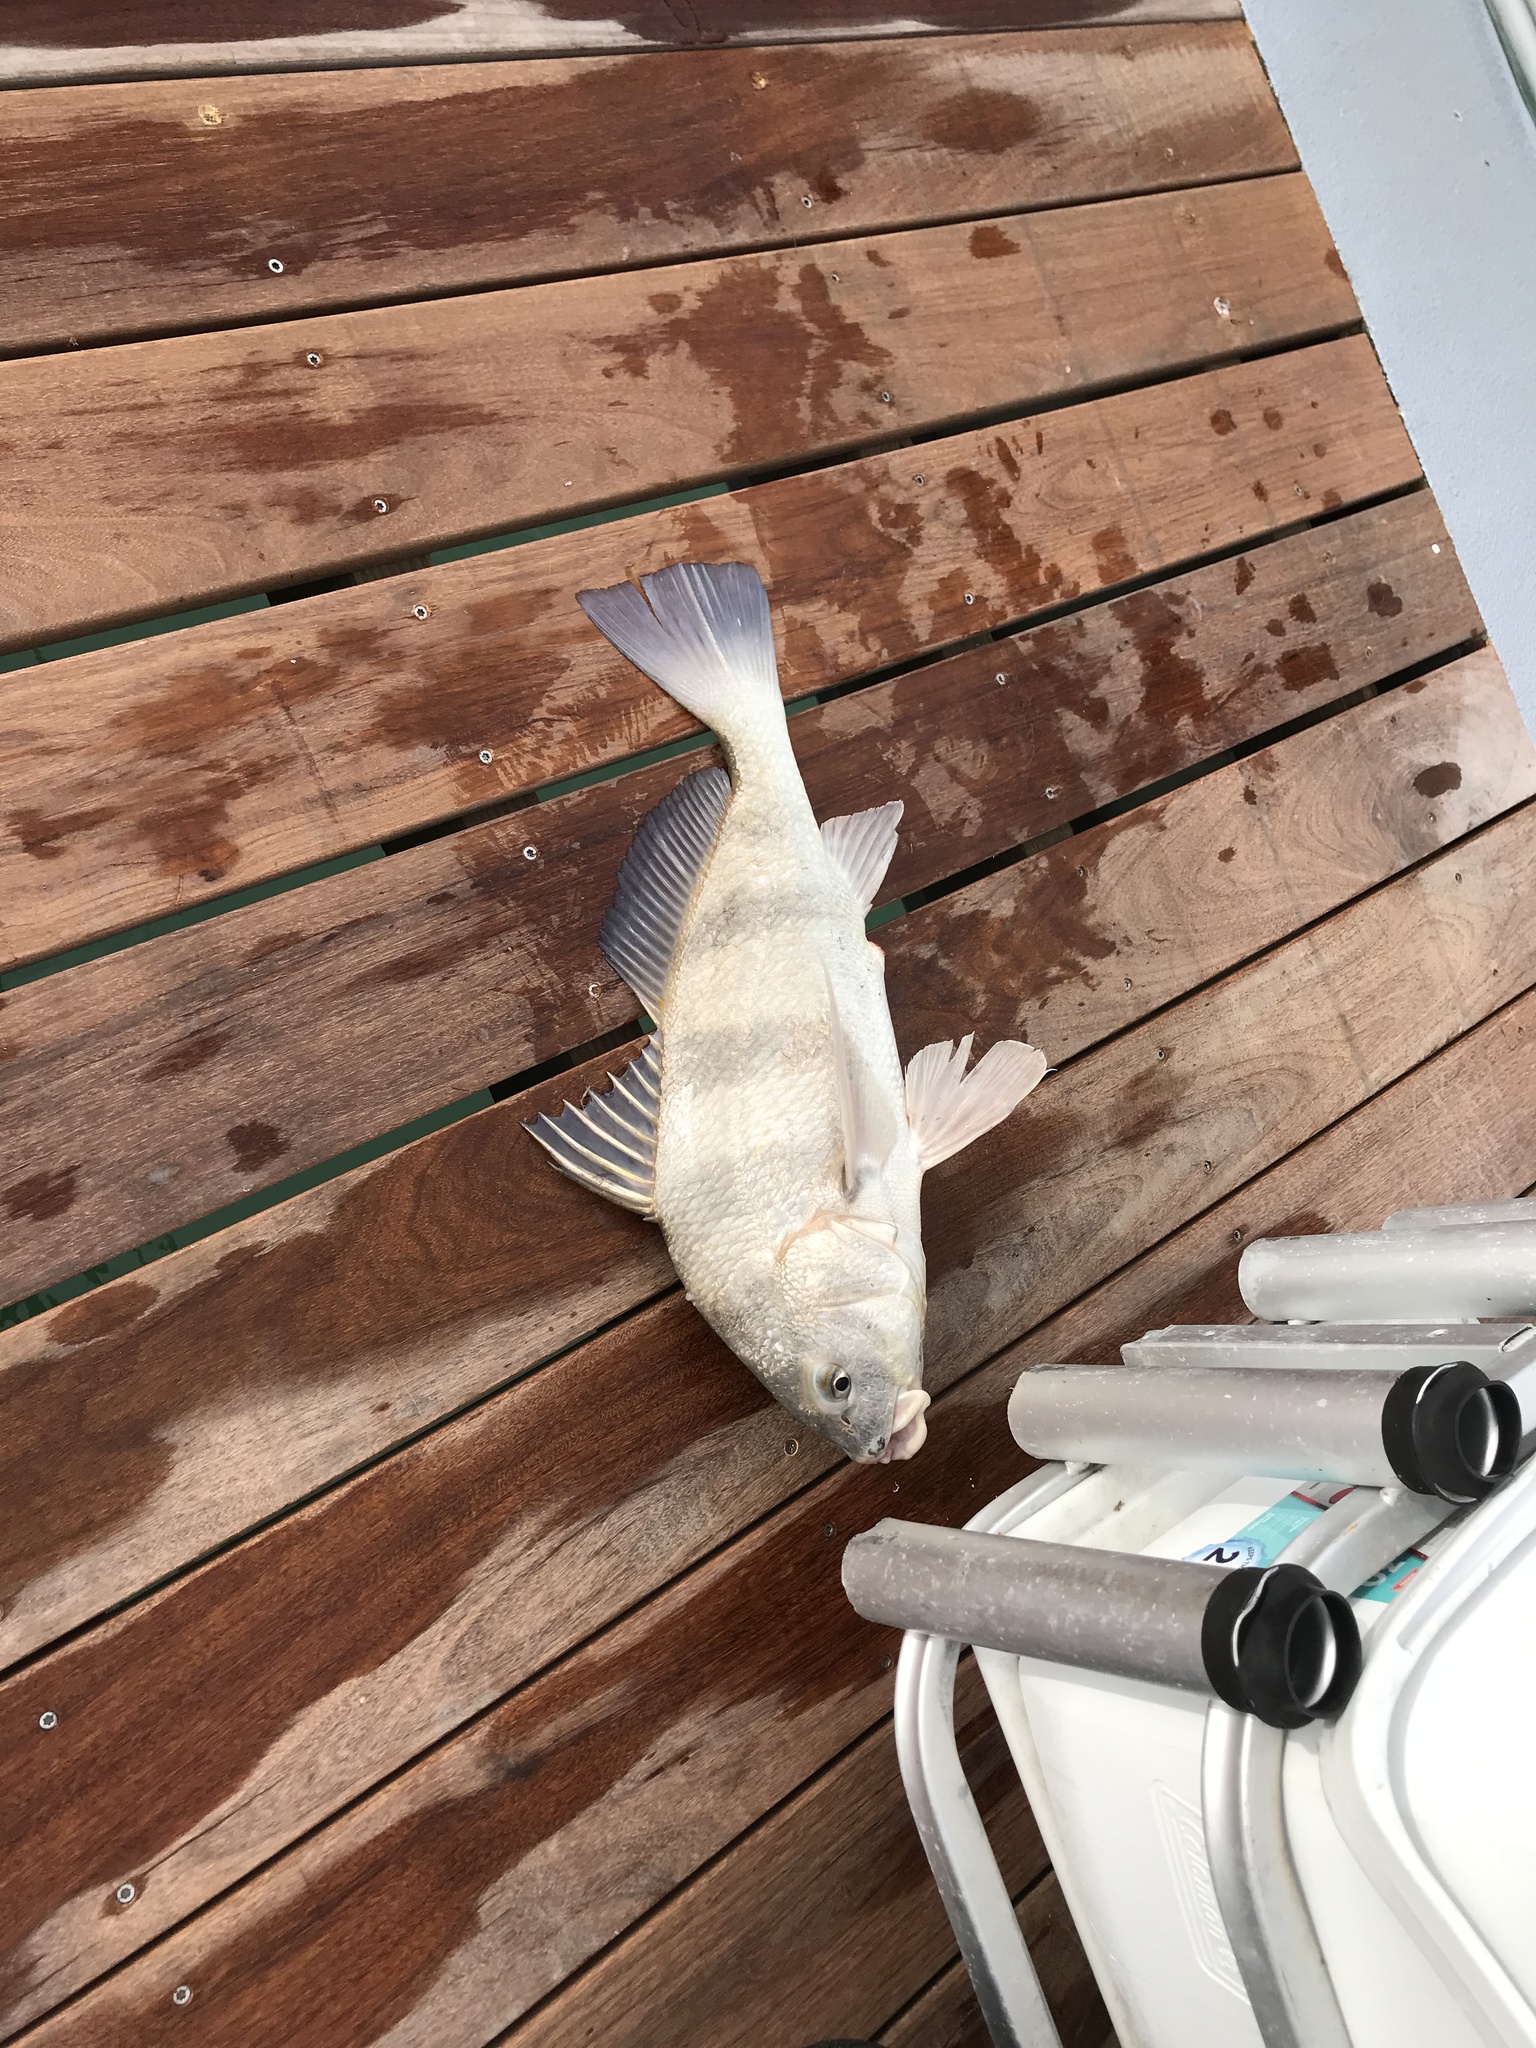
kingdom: Animalia
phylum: Chordata
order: Perciformes
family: Sciaenidae
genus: Pogonias
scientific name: Pogonias cromis
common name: Black drum
